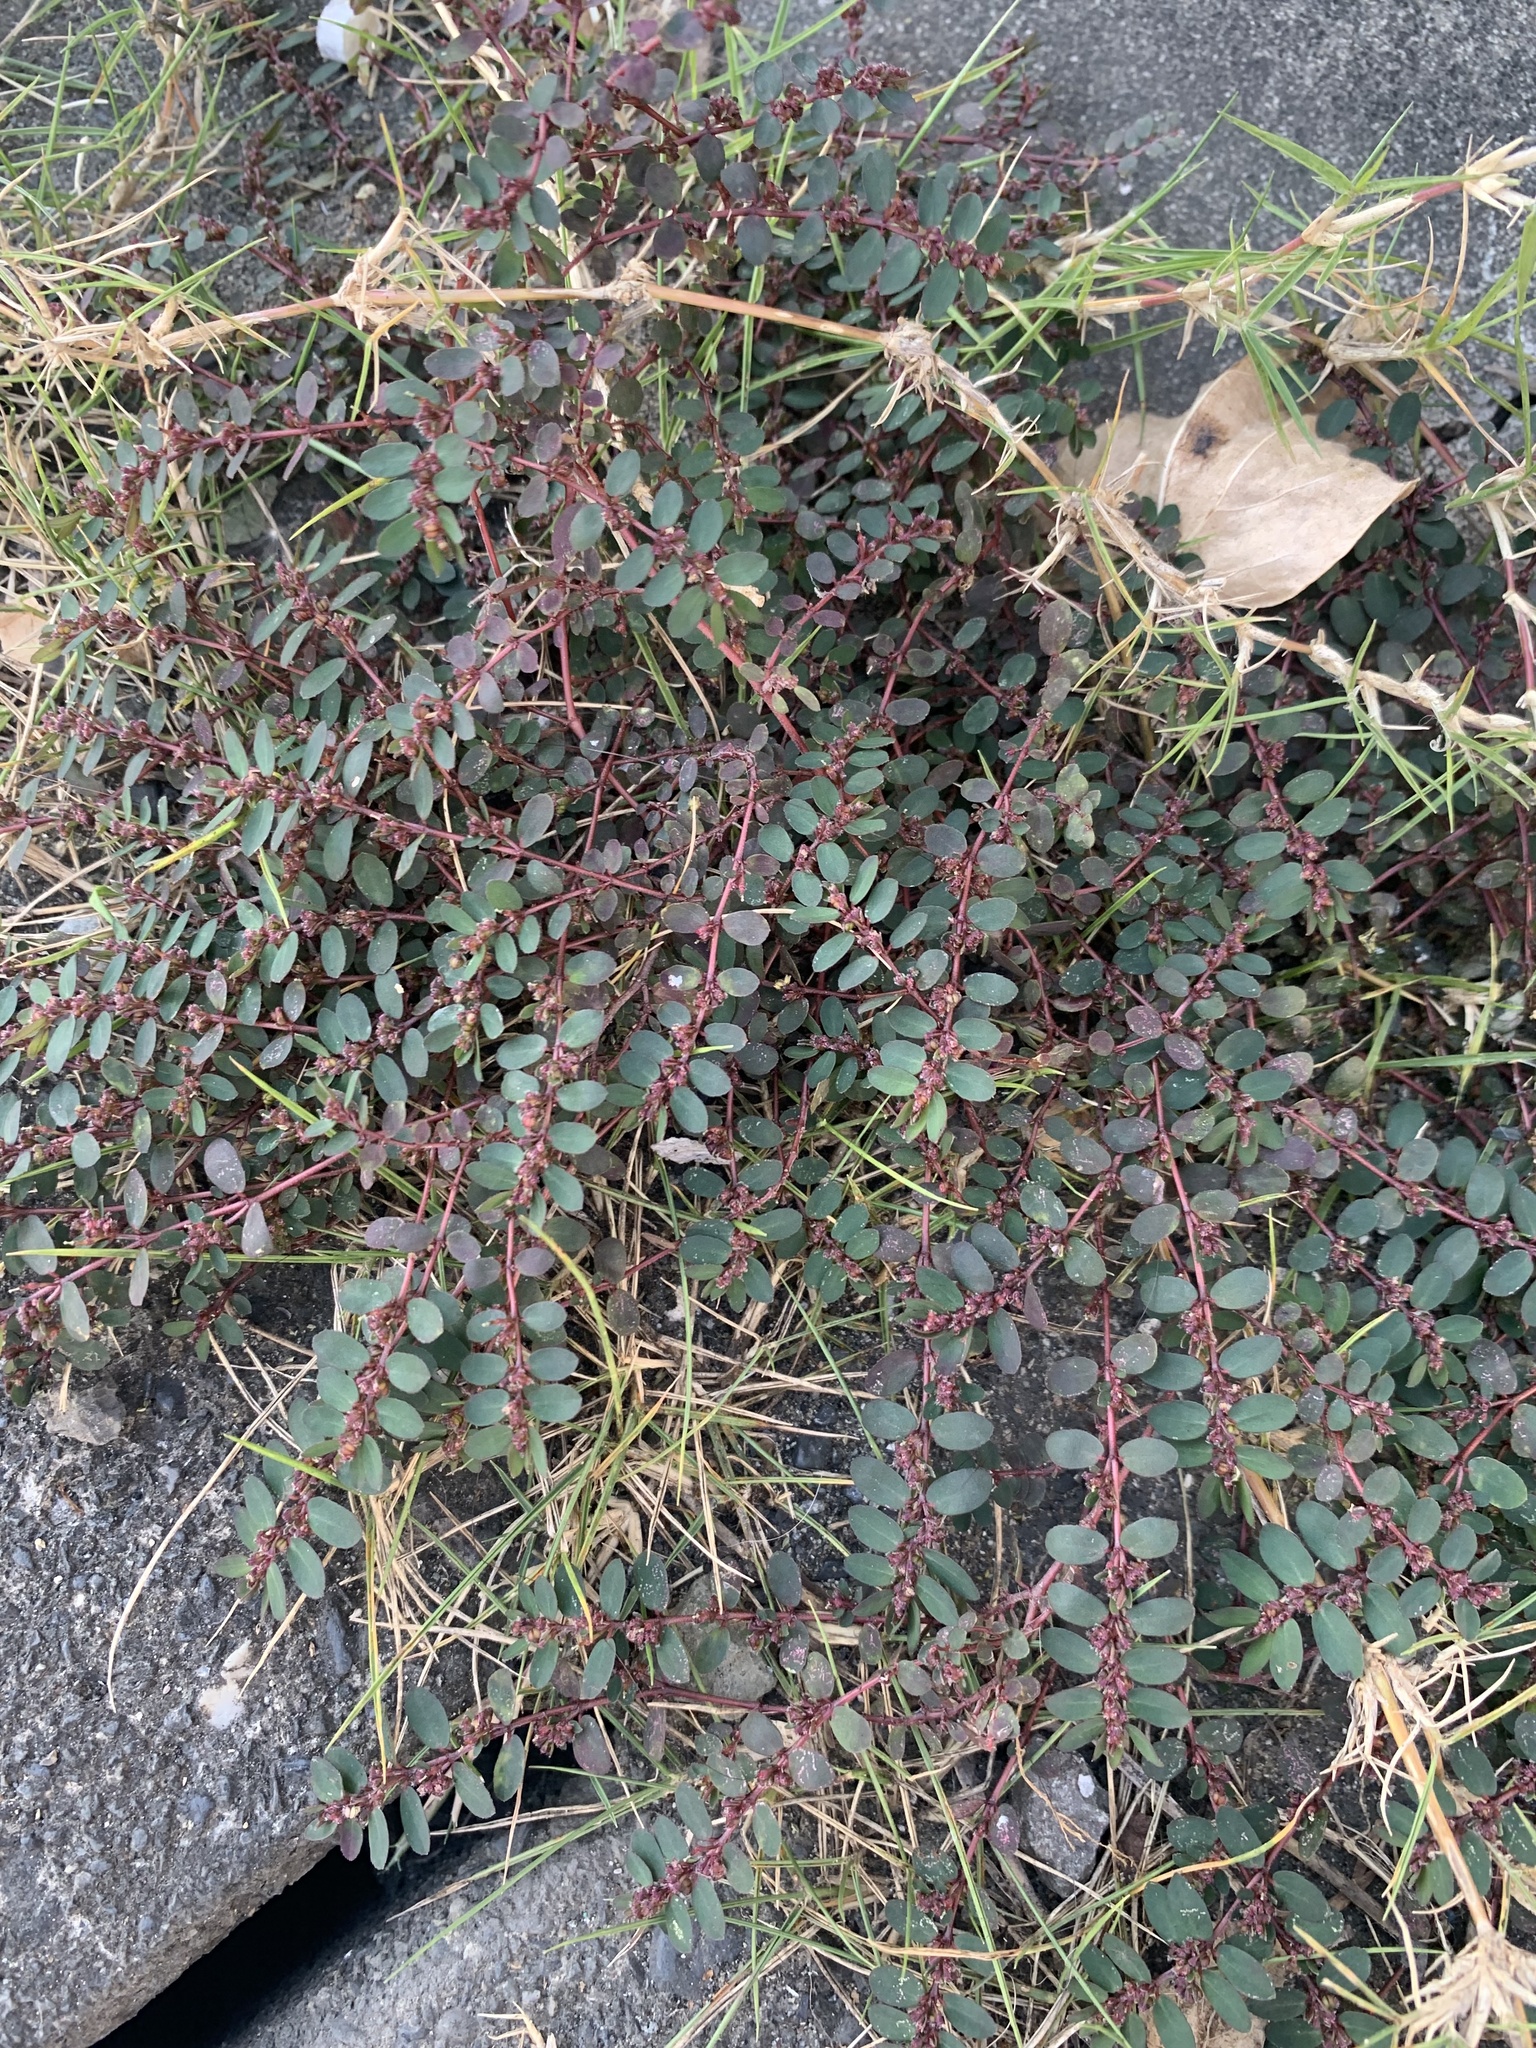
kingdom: Plantae
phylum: Tracheophyta
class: Magnoliopsida
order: Malpighiales
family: Euphorbiaceae
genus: Euphorbia
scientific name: Euphorbia prostrata
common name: Prostrate sandmat
